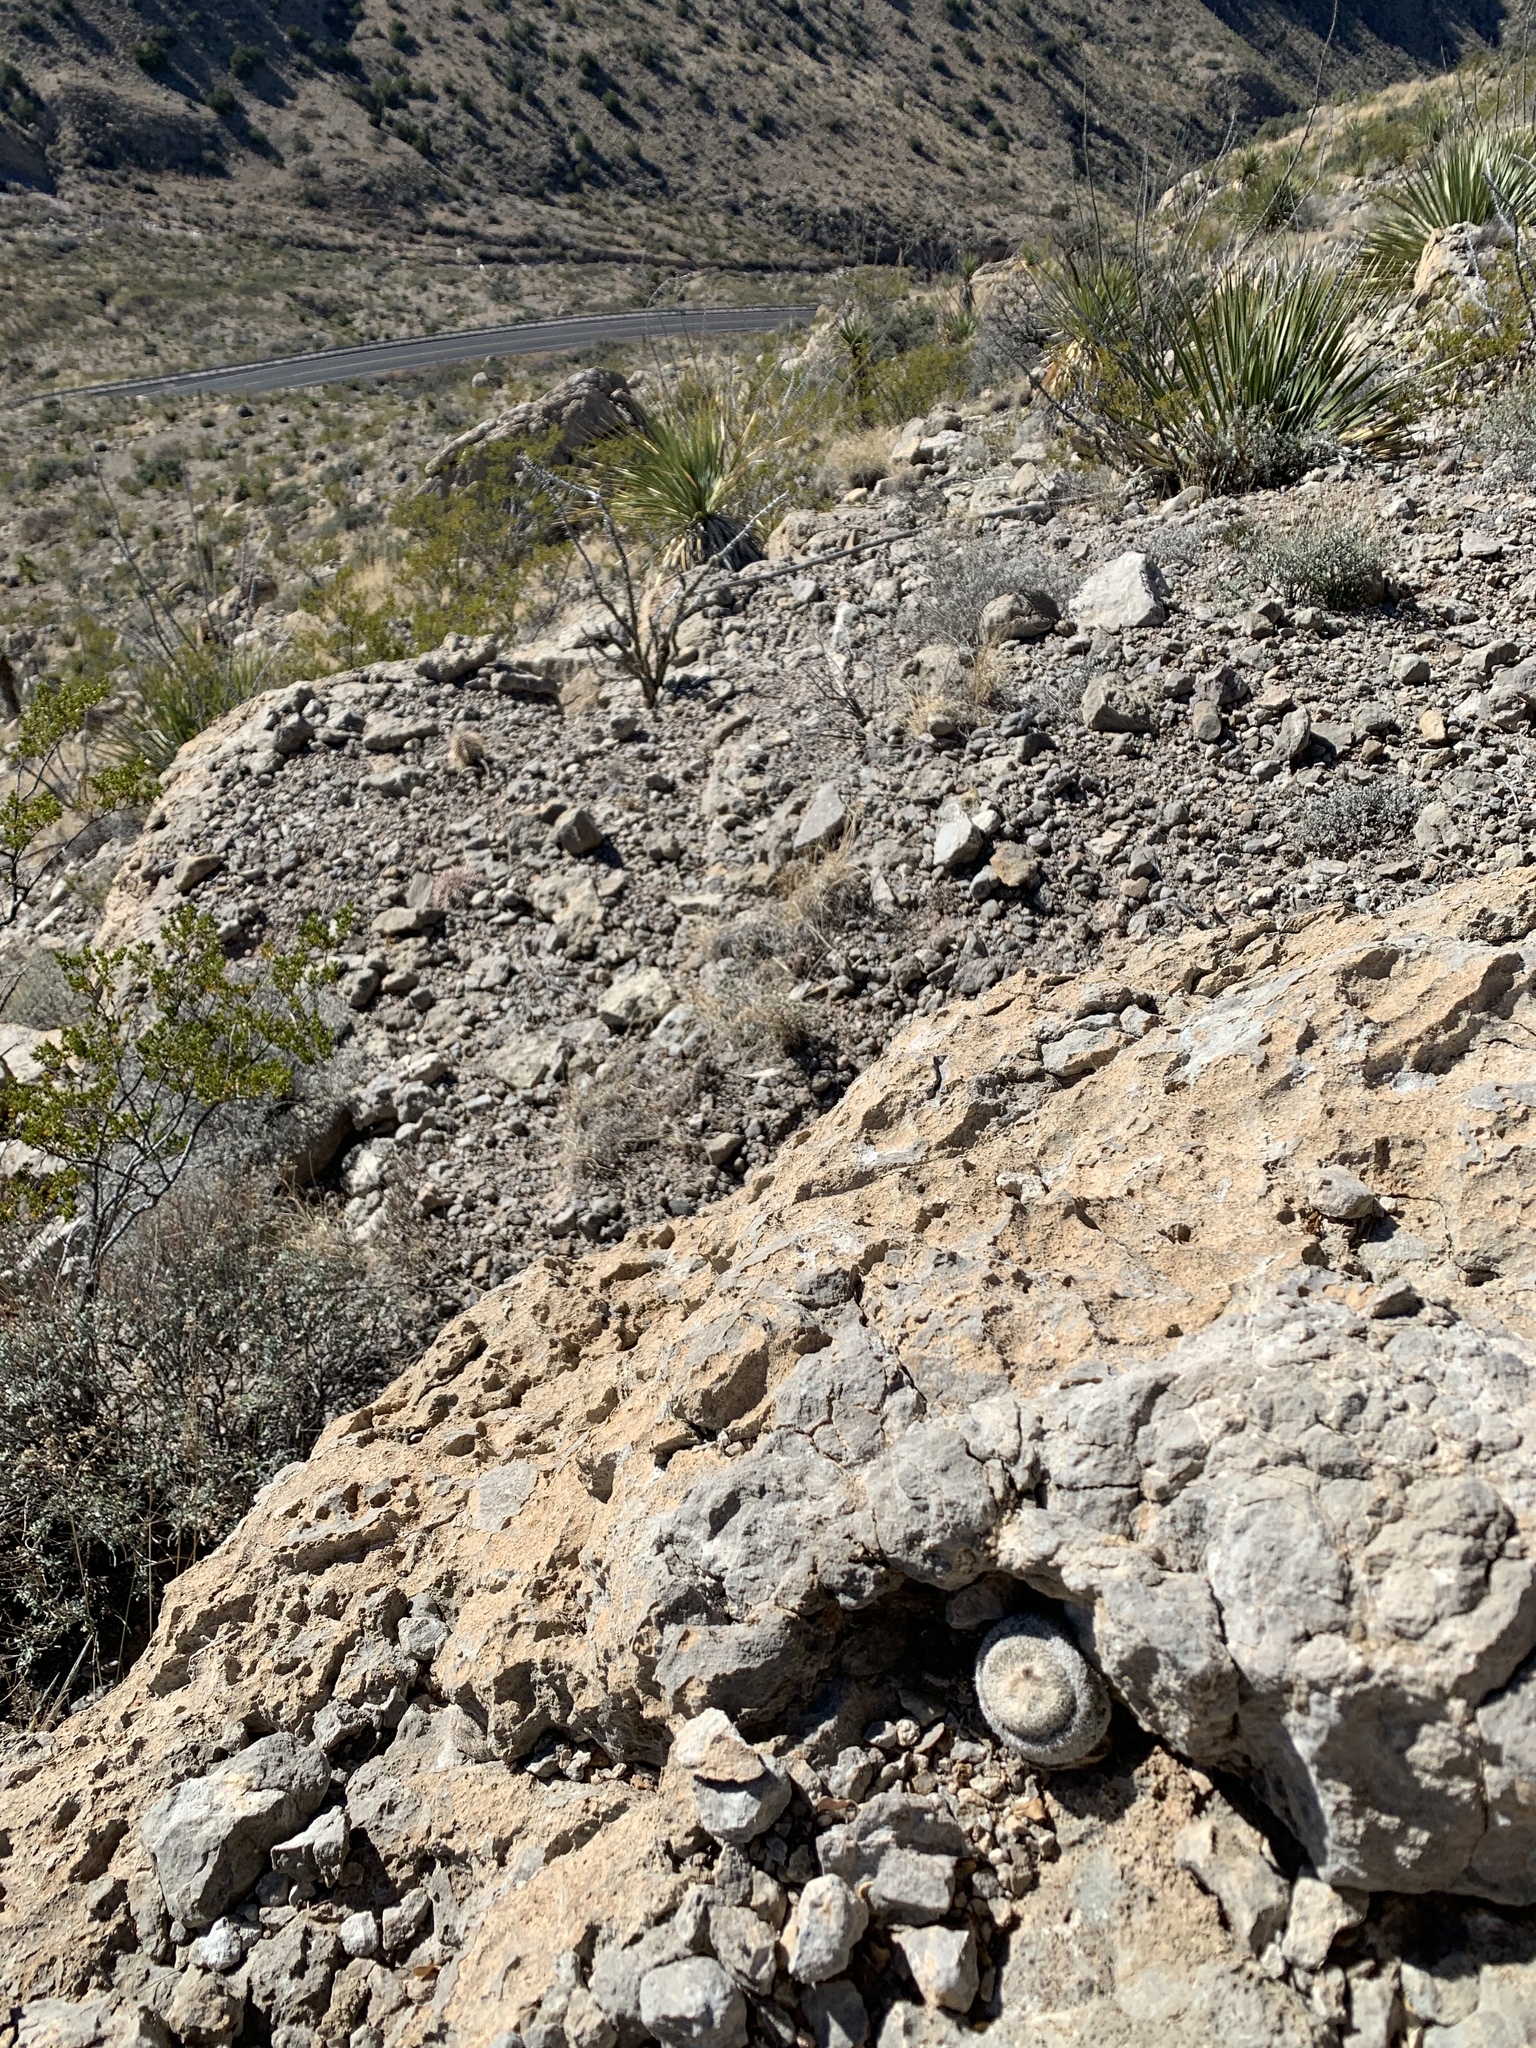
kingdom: Plantae
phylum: Tracheophyta
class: Magnoliopsida
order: Caryophyllales
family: Cactaceae
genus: Epithelantha
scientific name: Epithelantha micromeris
